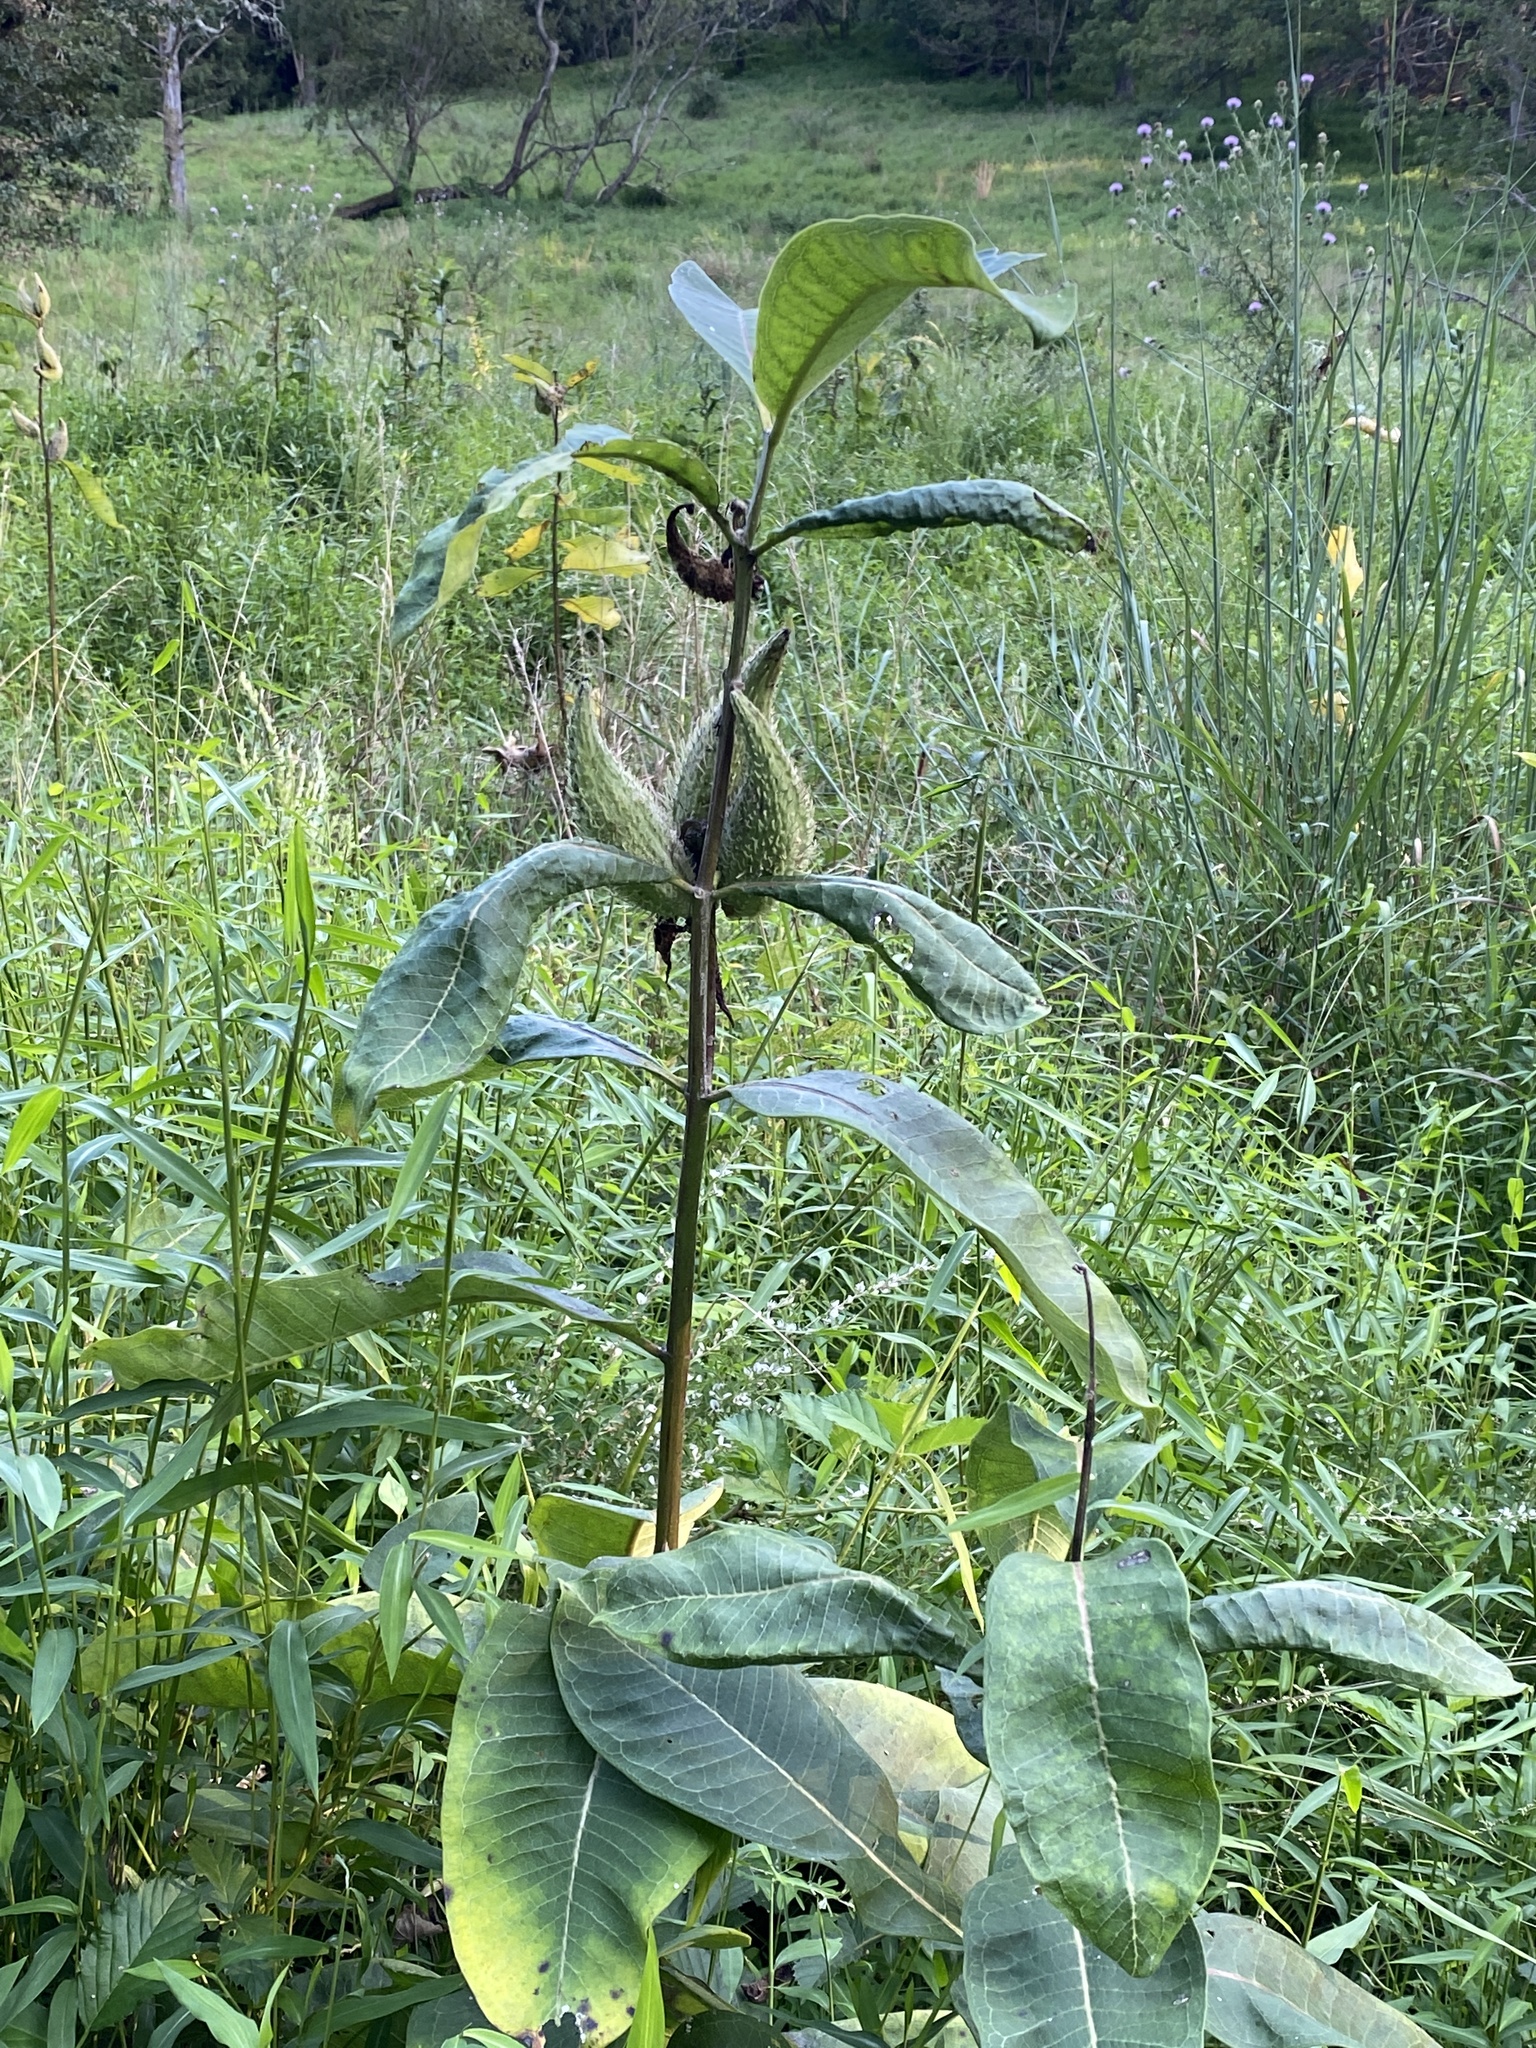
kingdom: Plantae
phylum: Tracheophyta
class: Magnoliopsida
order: Gentianales
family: Apocynaceae
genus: Asclepias
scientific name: Asclepias syriaca
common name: Common milkweed
